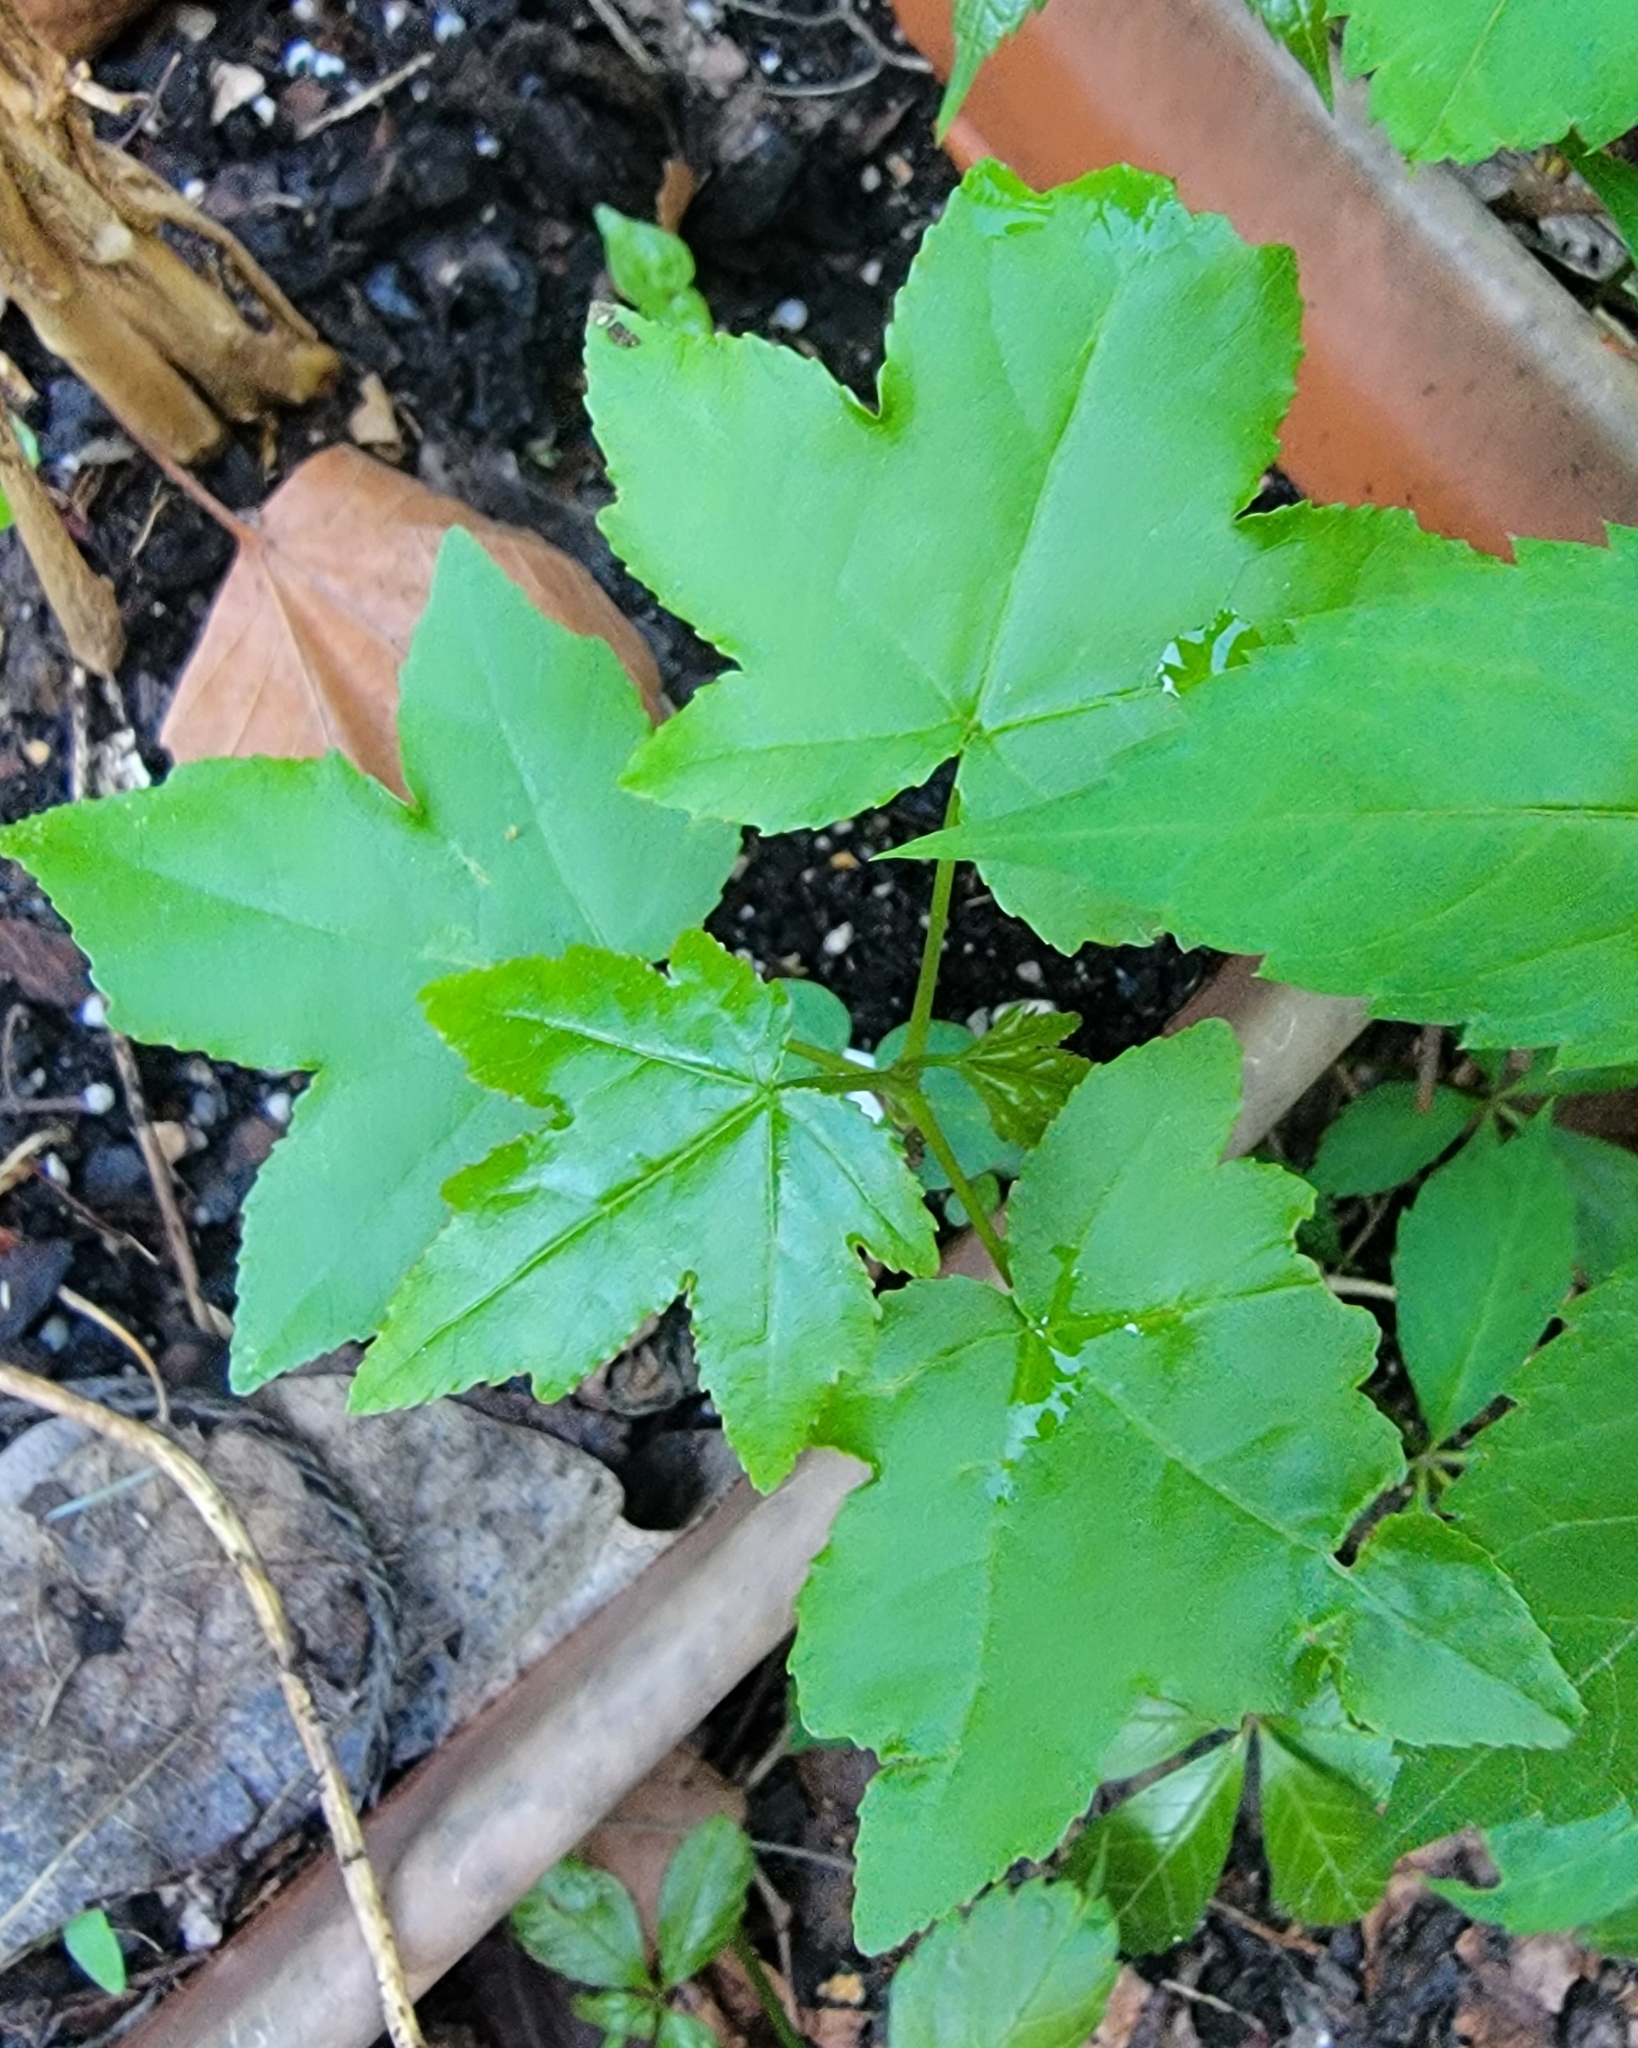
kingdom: Plantae
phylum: Tracheophyta
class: Magnoliopsida
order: Saxifragales
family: Altingiaceae
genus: Liquidambar
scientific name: Liquidambar styraciflua
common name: Sweet gum
